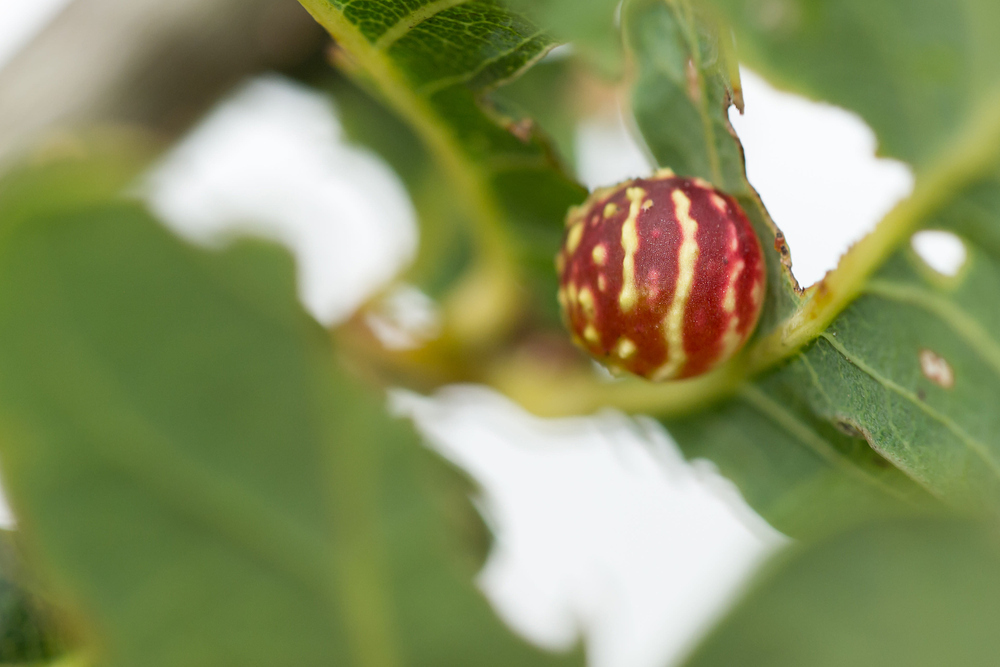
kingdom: Animalia
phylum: Arthropoda
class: Insecta
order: Hymenoptera
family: Cynipidae
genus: Cynips
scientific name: Cynips longiventris
